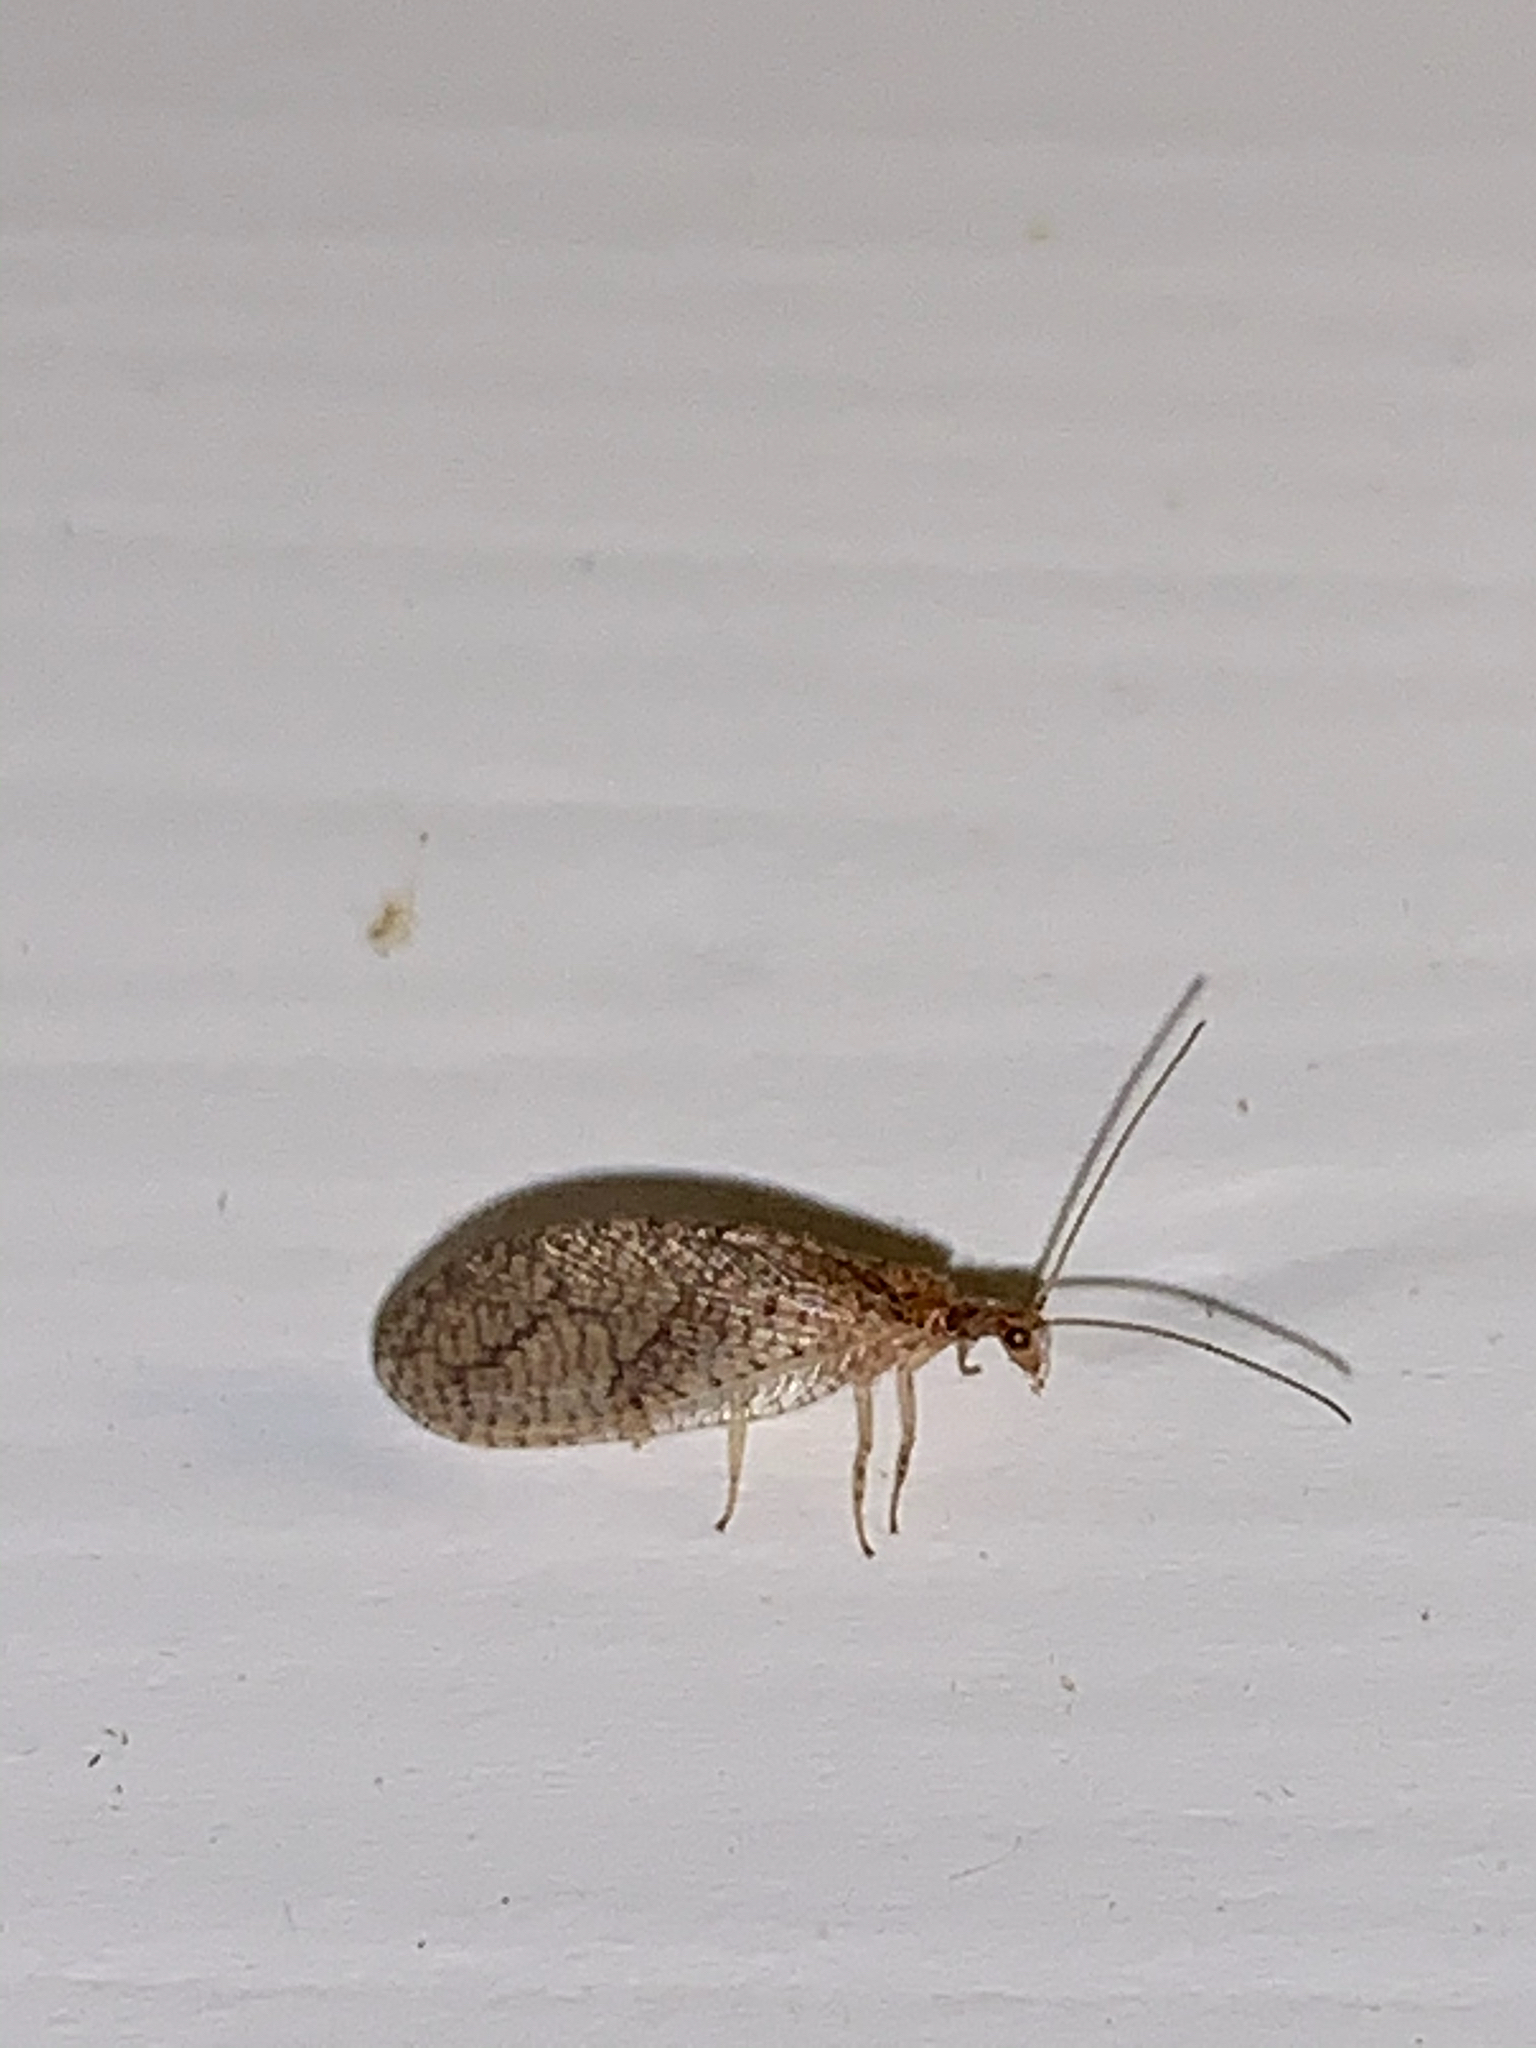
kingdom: Animalia
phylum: Arthropoda
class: Insecta
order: Neuroptera
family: Hemerobiidae
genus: Micromus
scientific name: Micromus posticus
